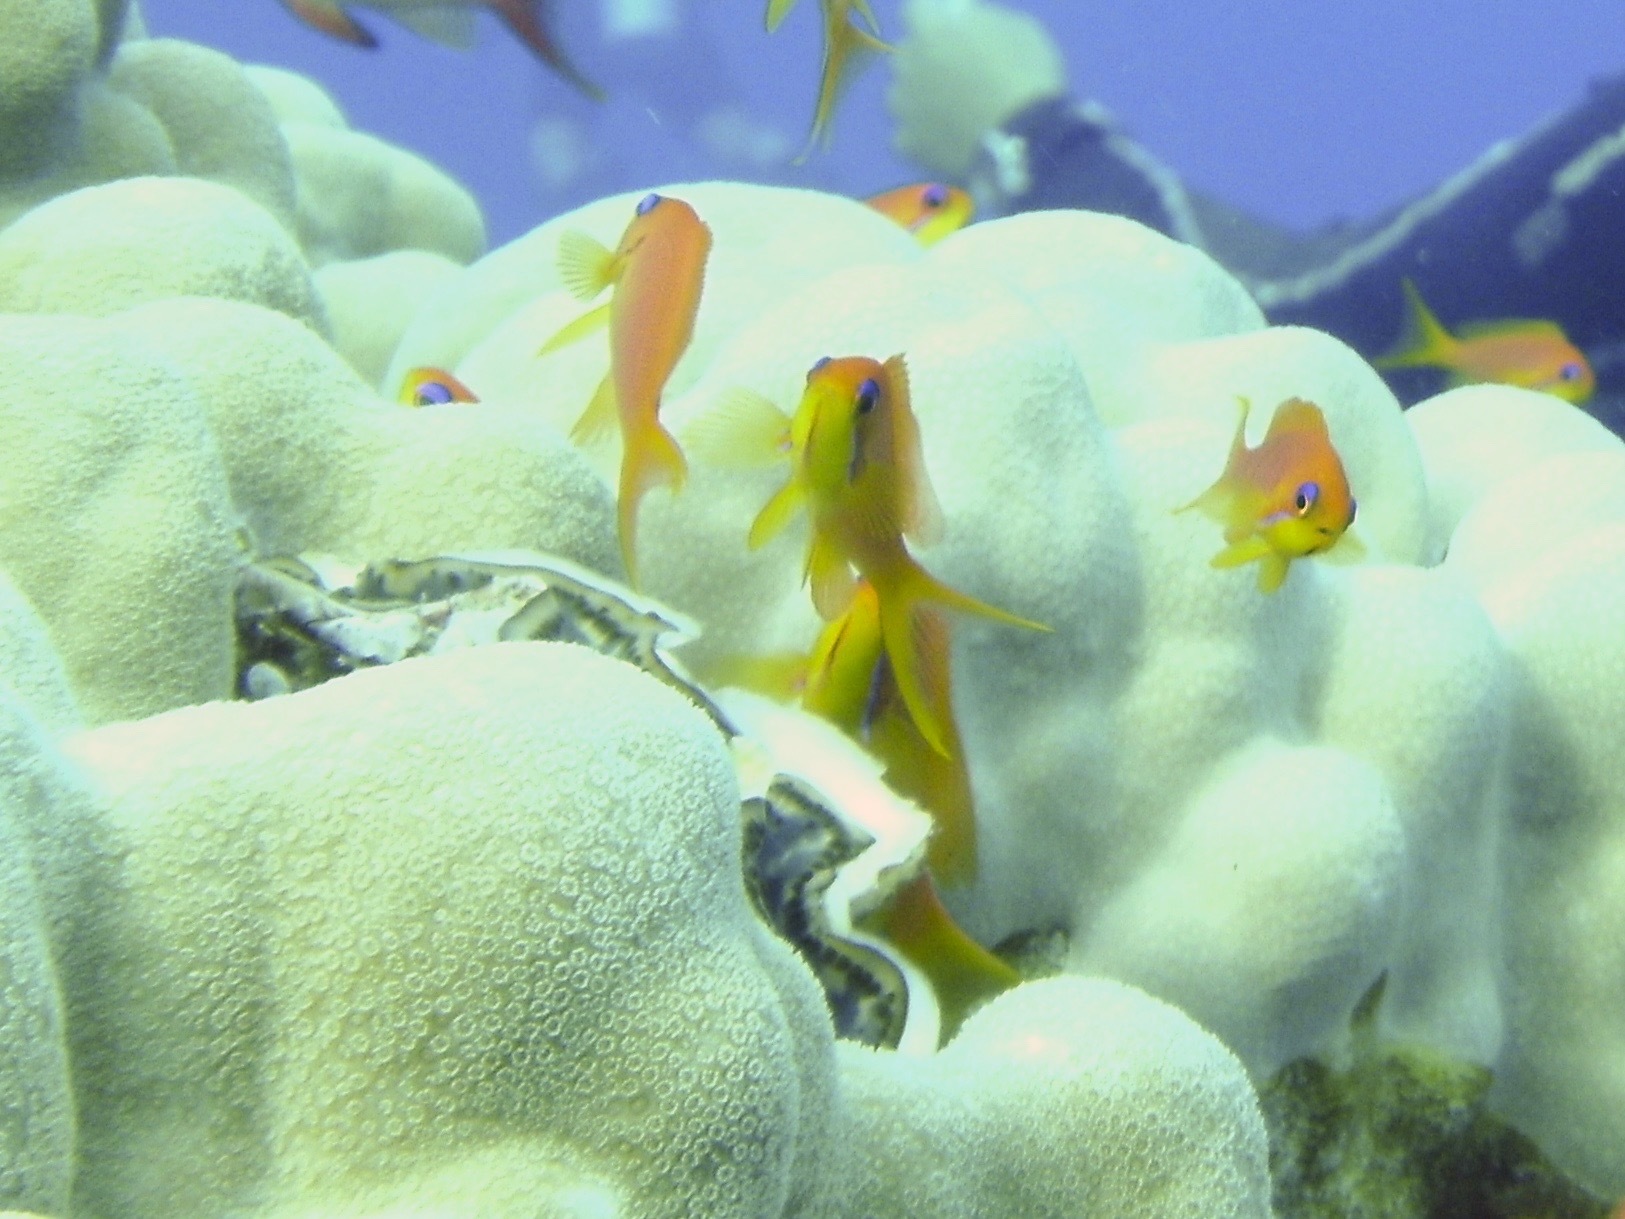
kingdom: Animalia
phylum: Chordata
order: Perciformes
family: Serranidae
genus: Pseudanthias
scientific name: Pseudanthias squamipinnis
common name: Scalefin anthias
